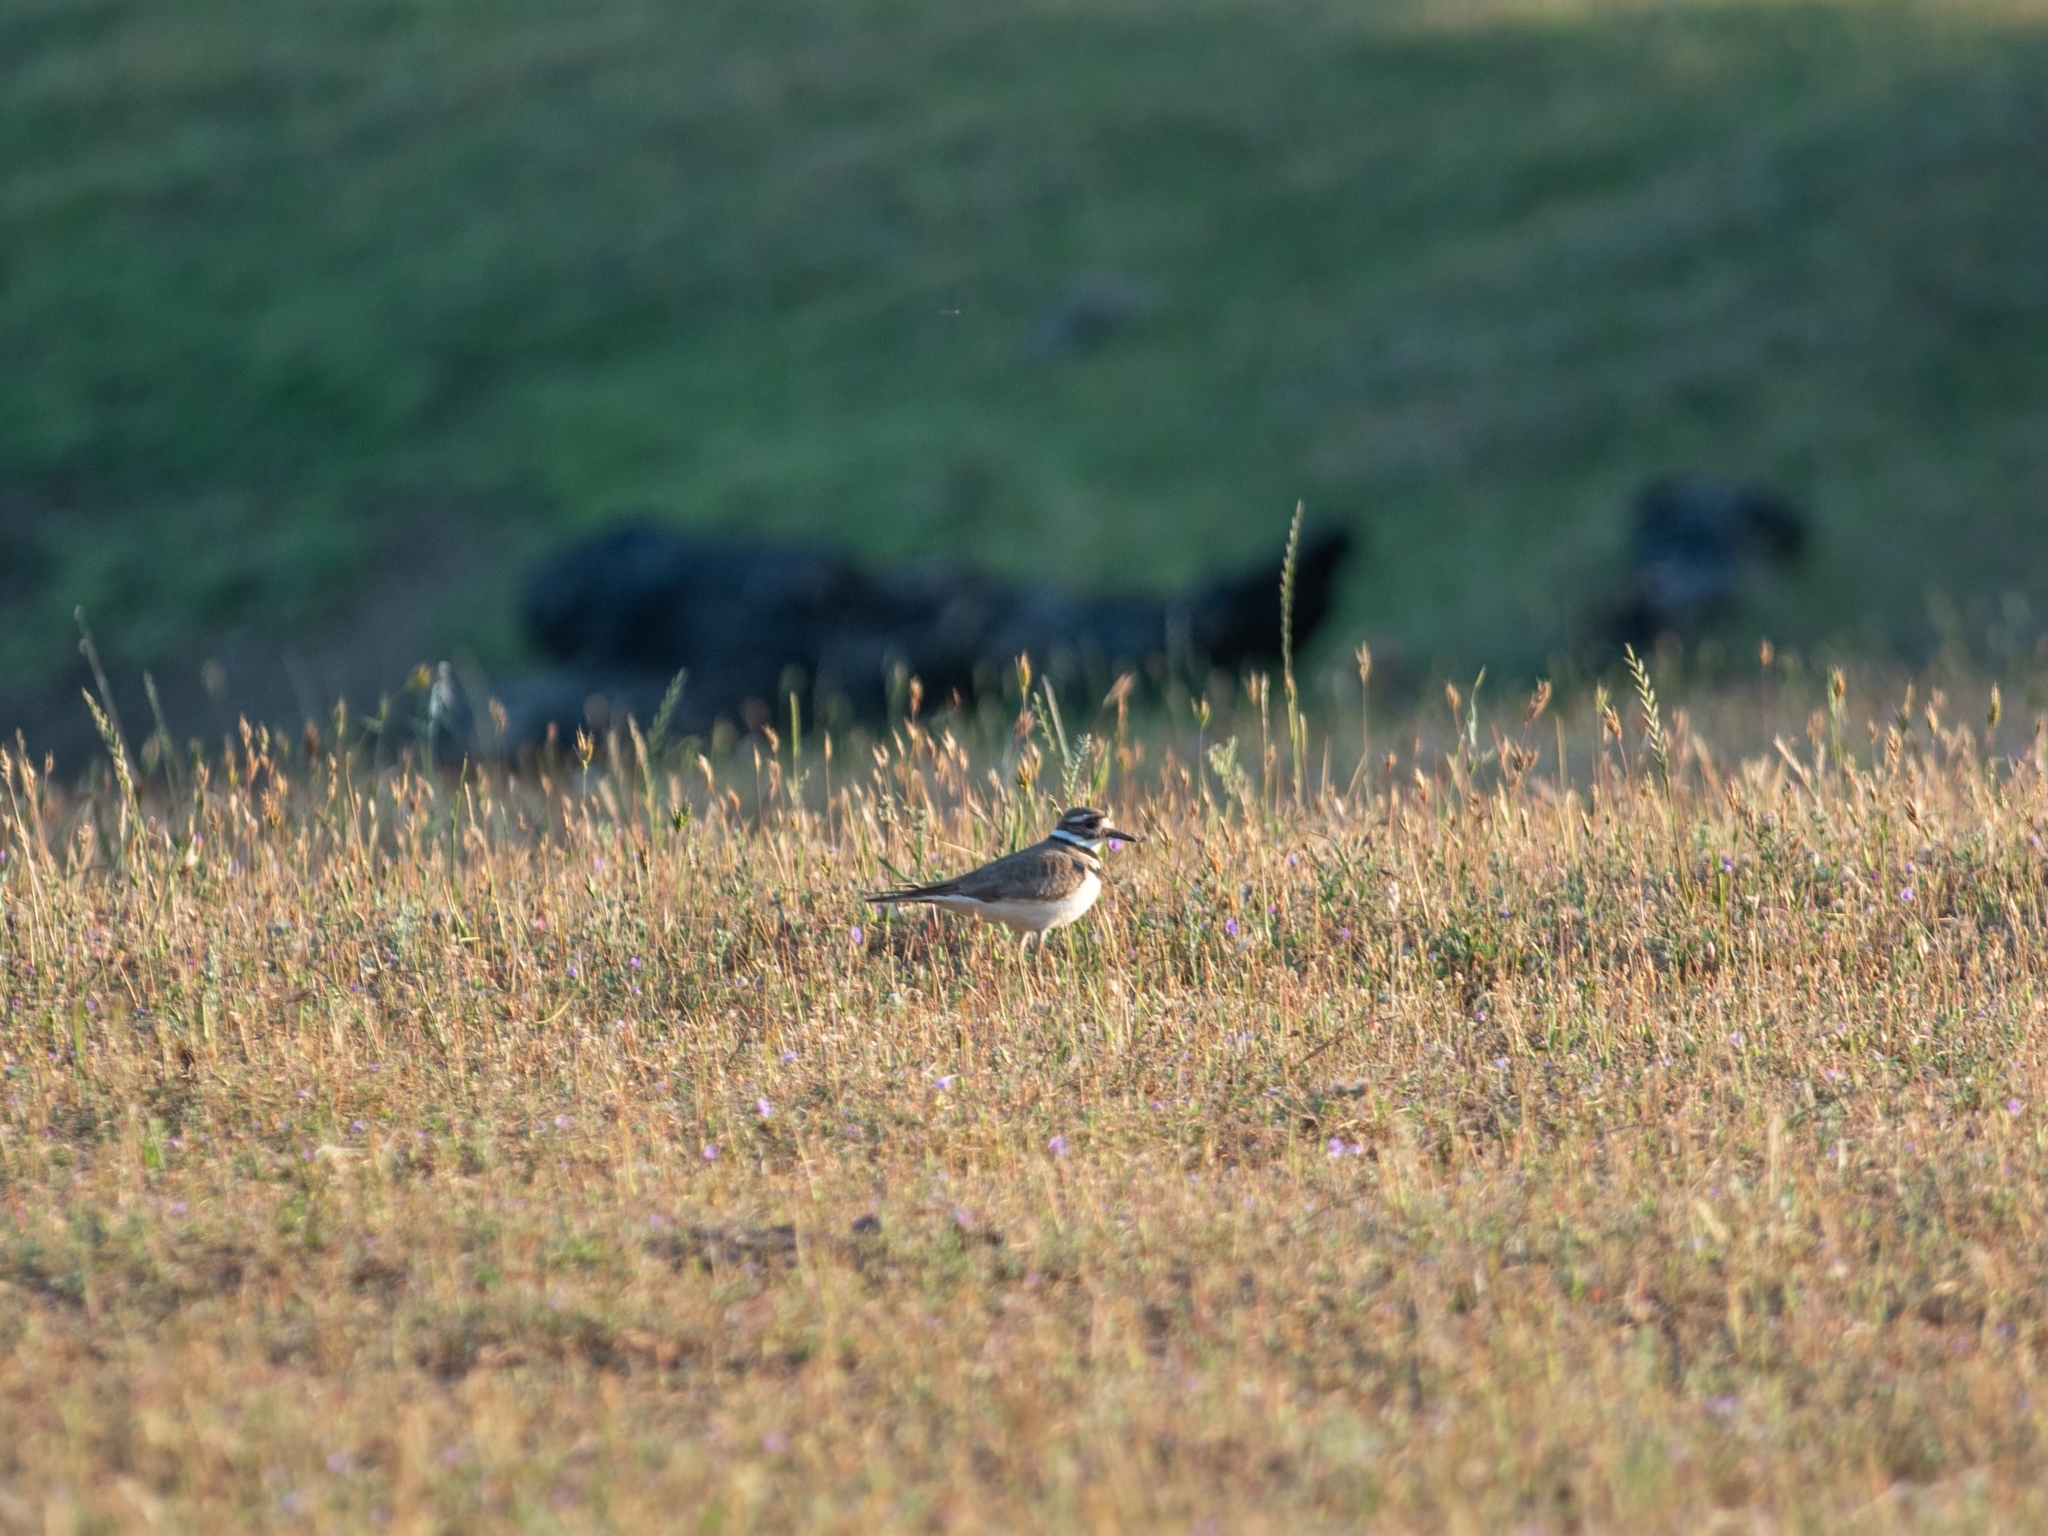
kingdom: Animalia
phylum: Chordata
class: Aves
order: Charadriiformes
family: Charadriidae
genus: Charadrius
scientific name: Charadrius vociferus
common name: Killdeer
